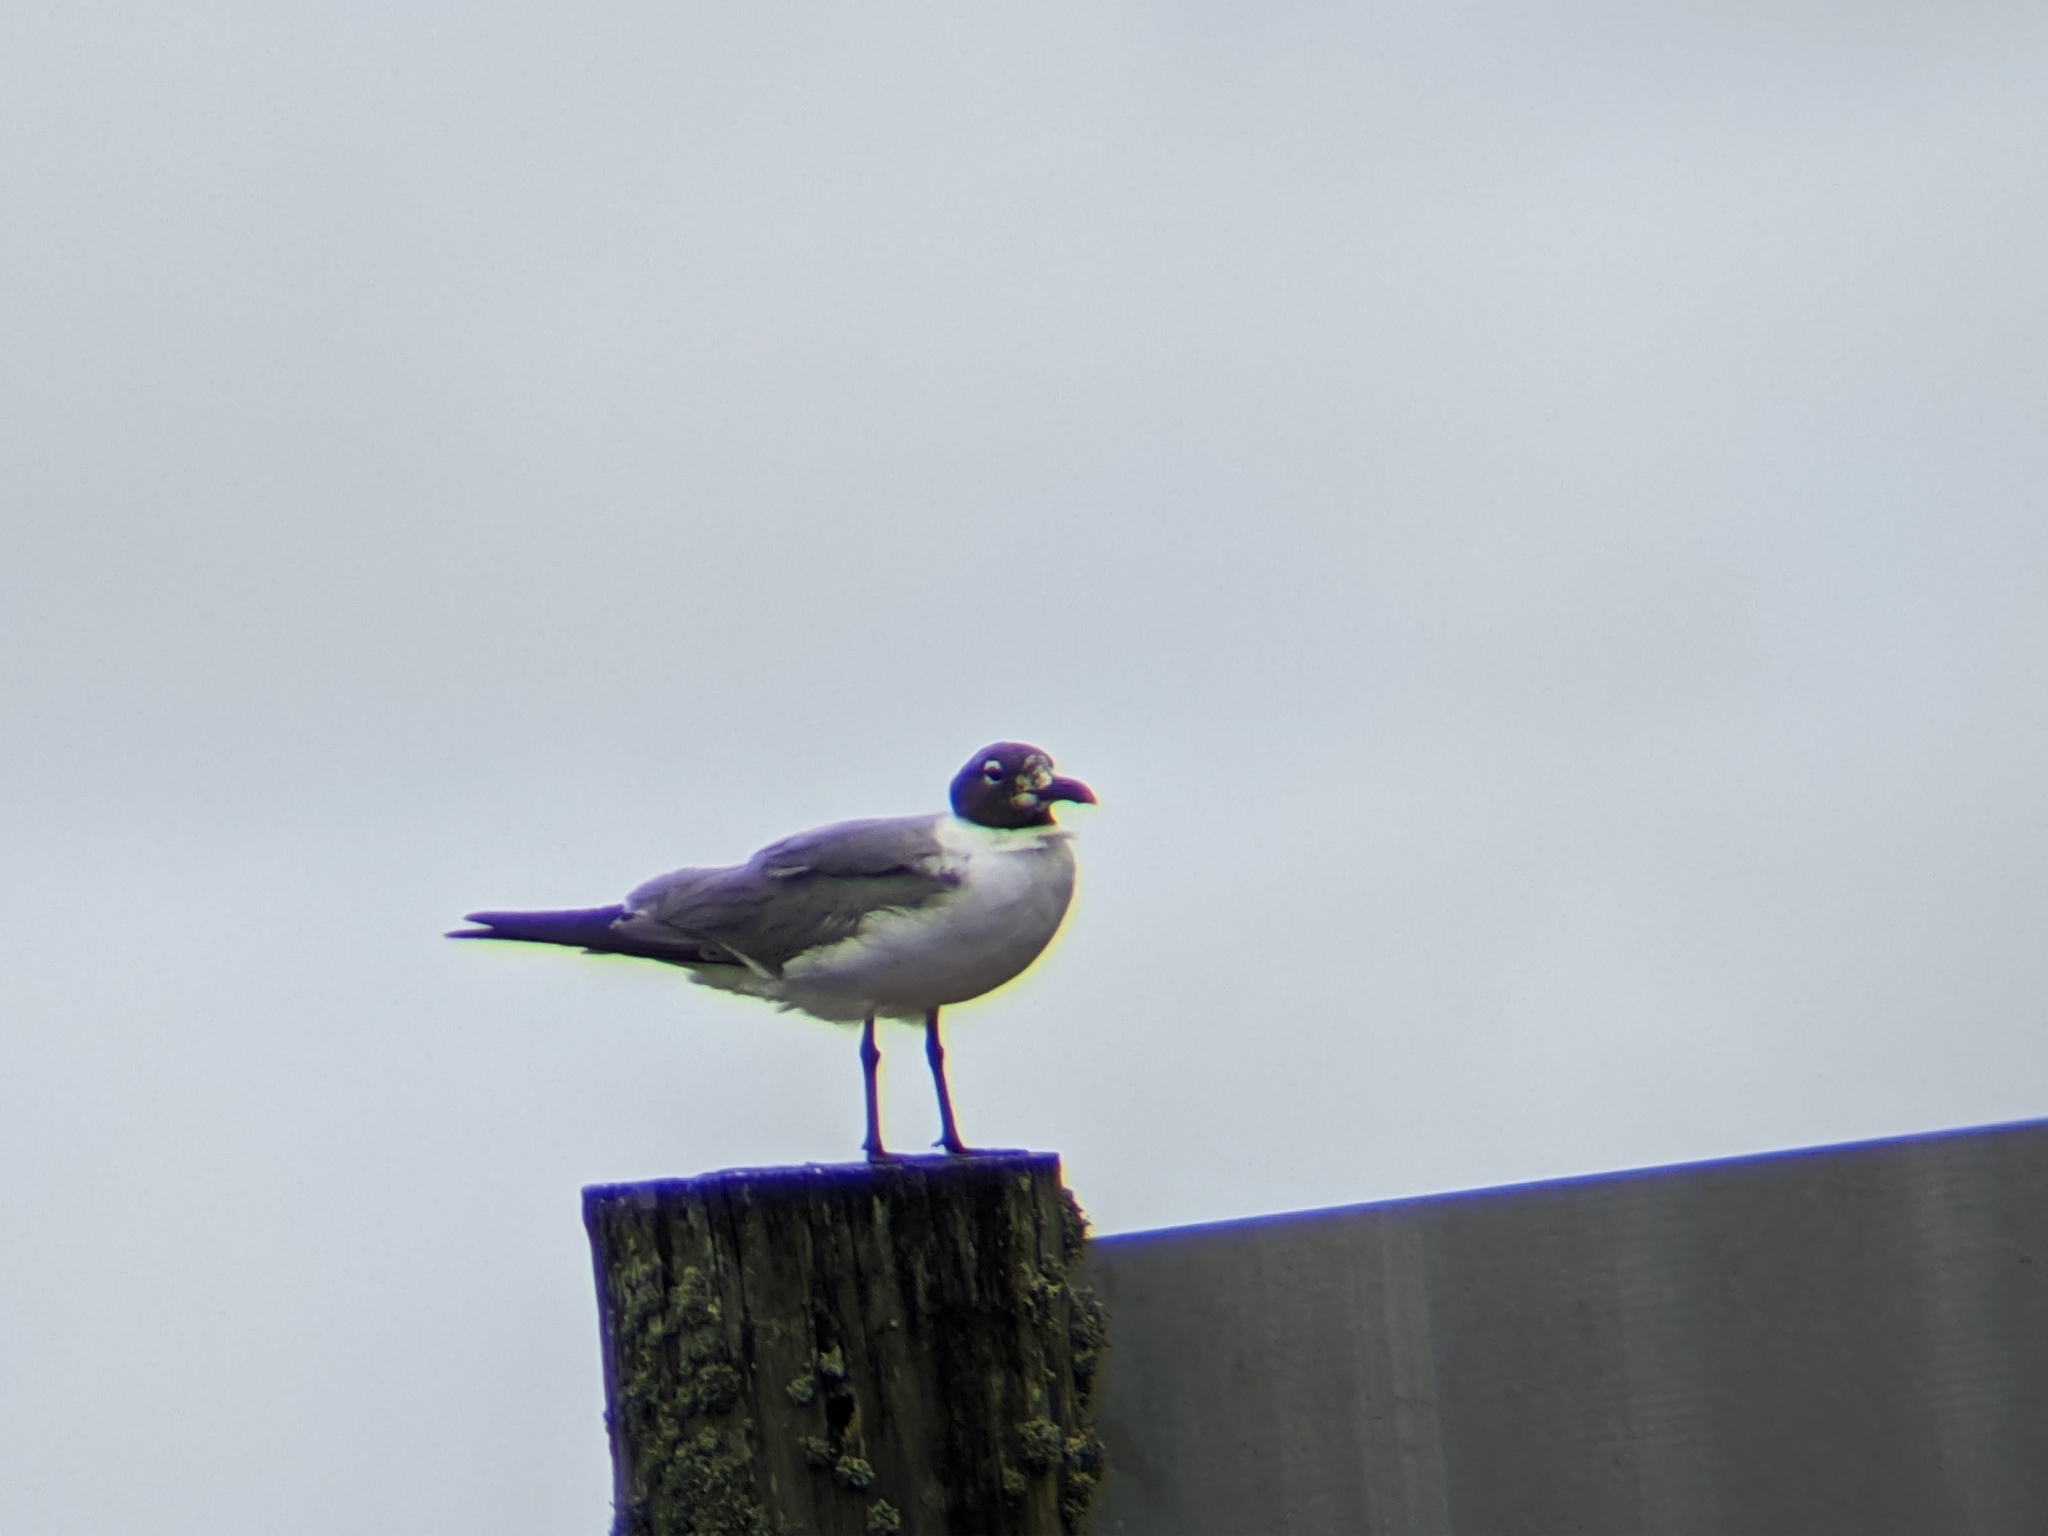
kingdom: Animalia
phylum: Chordata
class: Aves
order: Charadriiformes
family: Laridae
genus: Leucophaeus
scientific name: Leucophaeus atricilla
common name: Laughing gull
